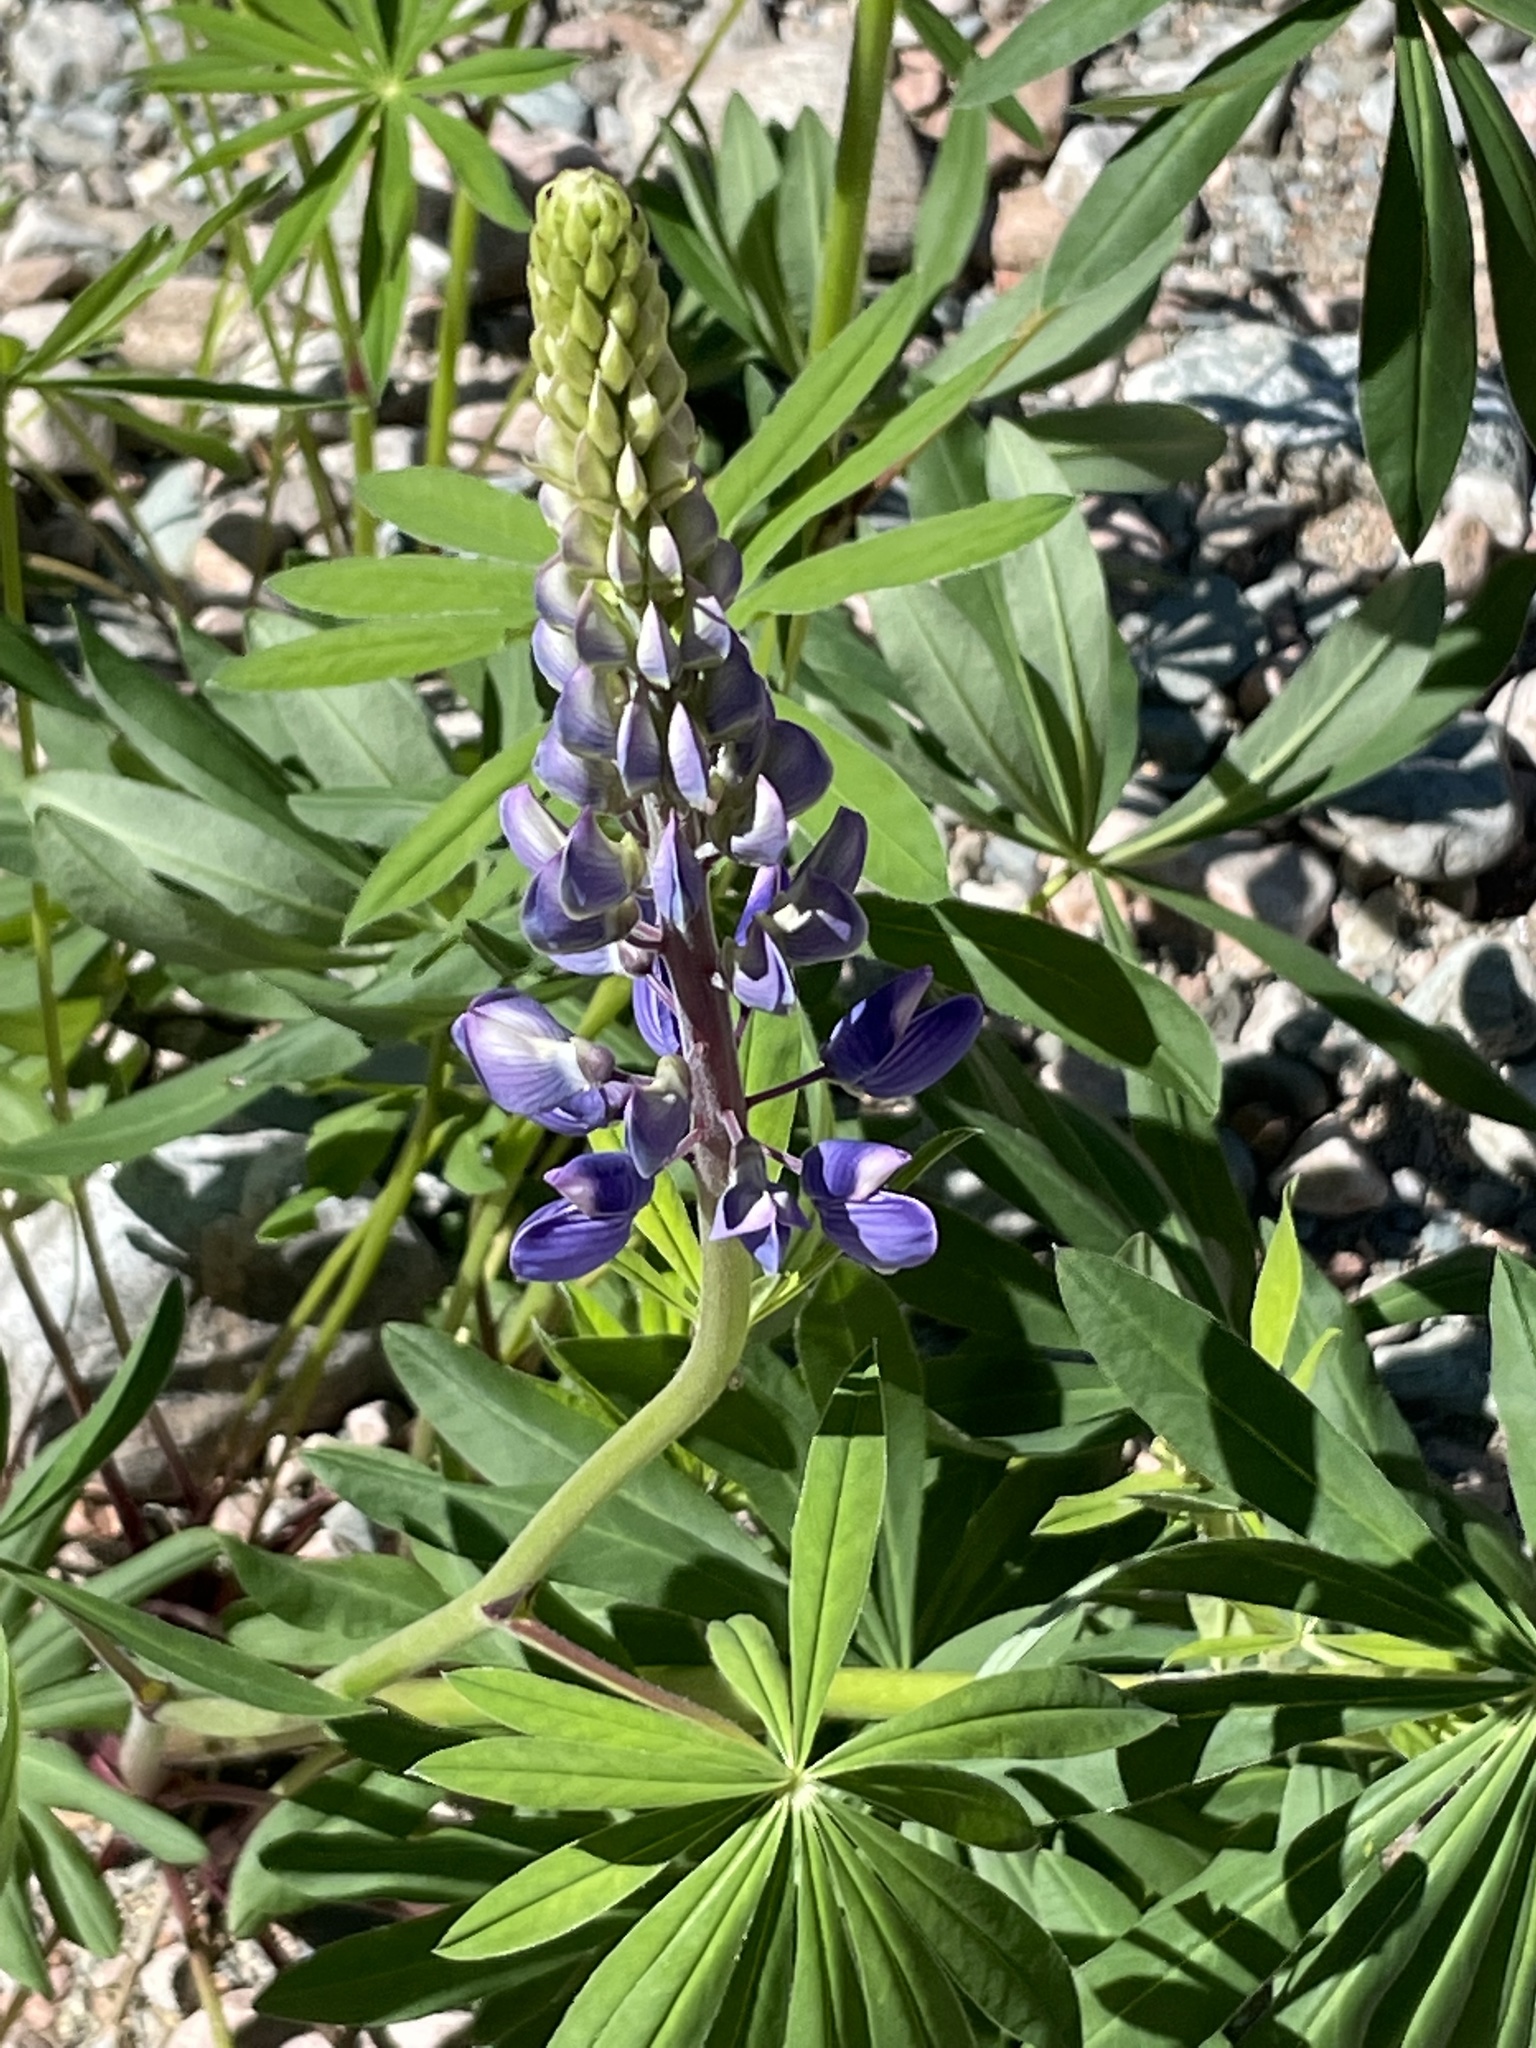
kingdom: Plantae
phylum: Tracheophyta
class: Magnoliopsida
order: Fabales
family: Fabaceae
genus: Lupinus
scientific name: Lupinus polyphyllus
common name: Garden lupin
